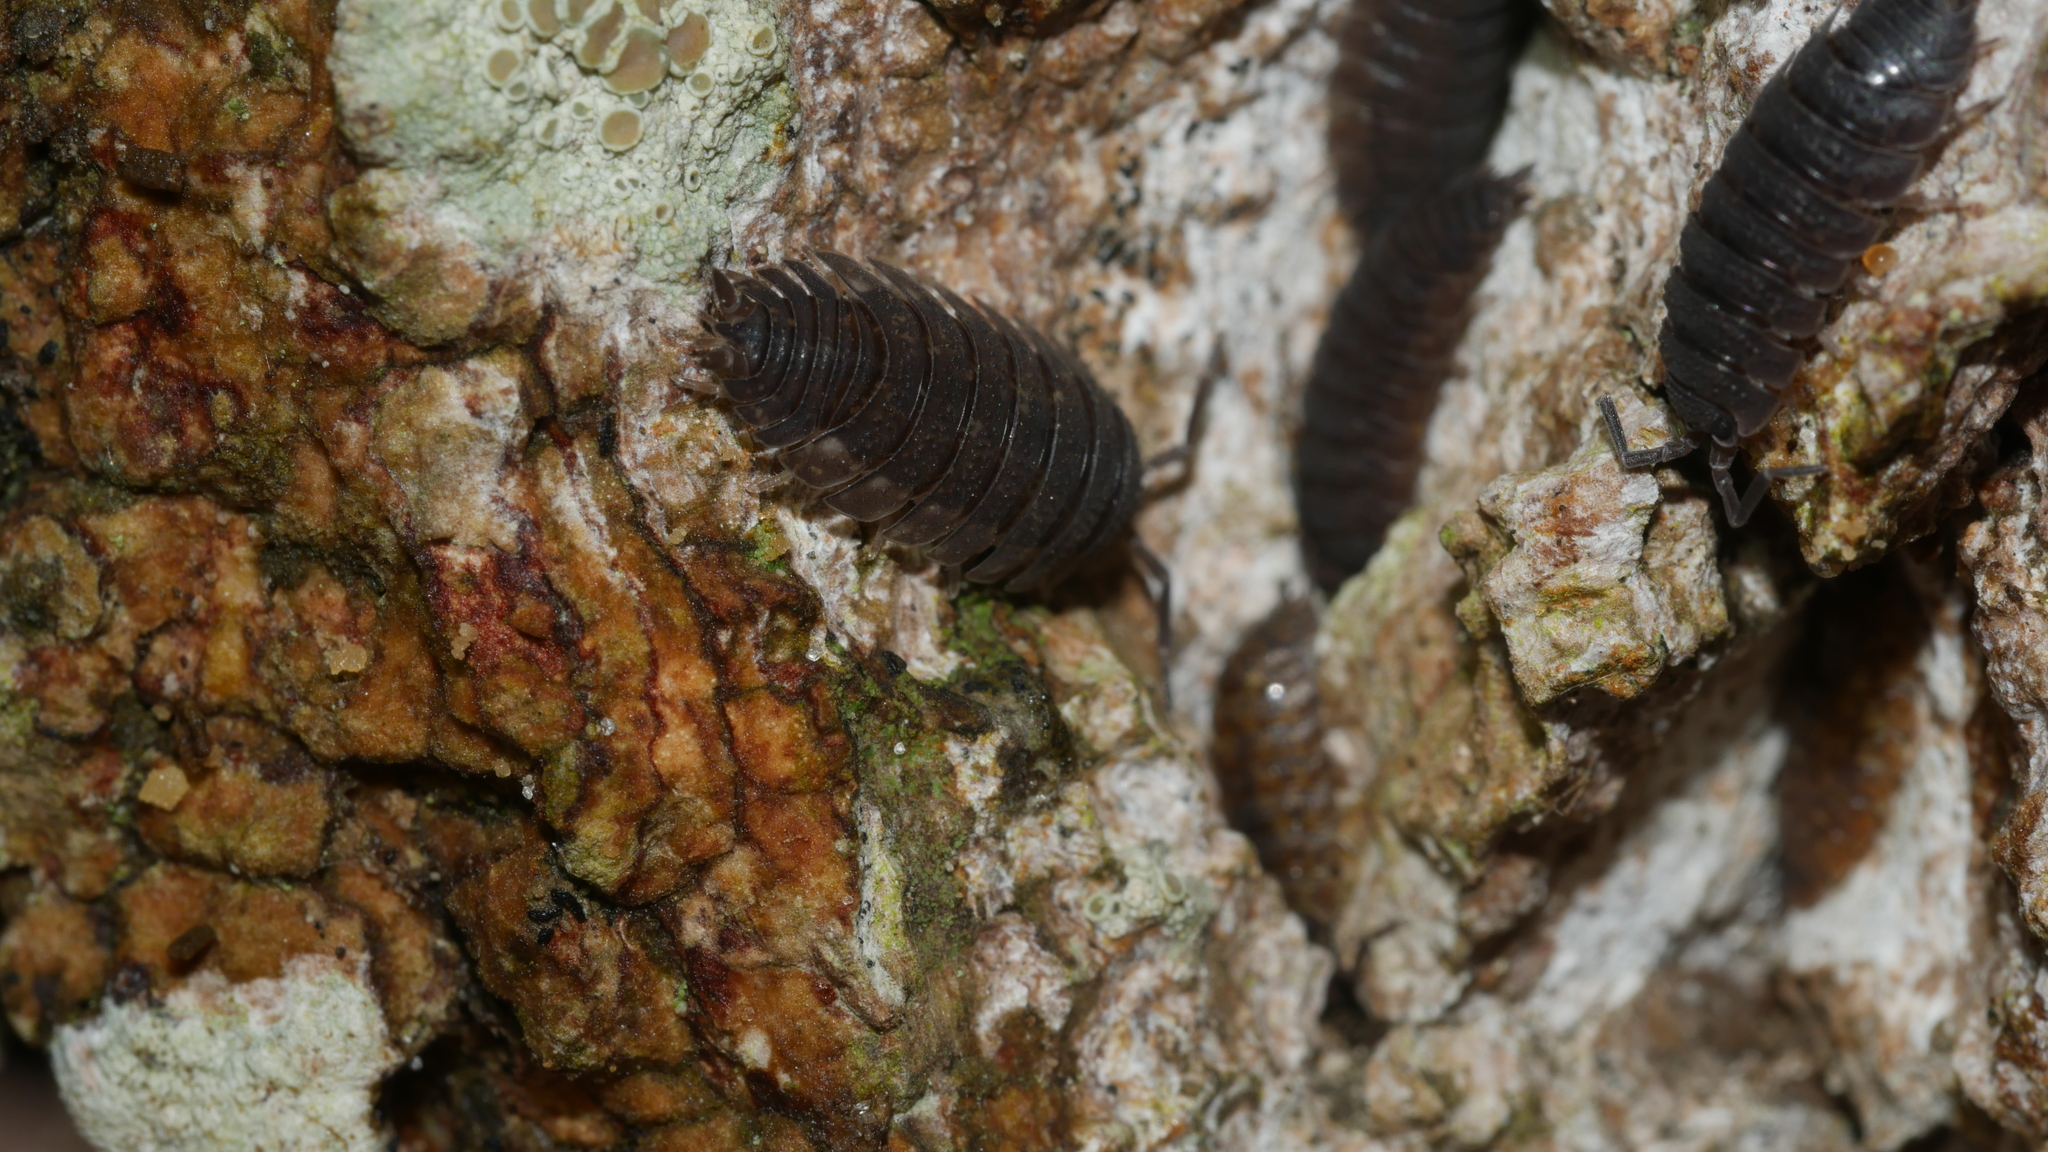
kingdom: Animalia
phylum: Arthropoda
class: Malacostraca
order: Isopoda
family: Porcellionidae
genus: Porcellio
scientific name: Porcellio scaber
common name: Common rough woodlouse
